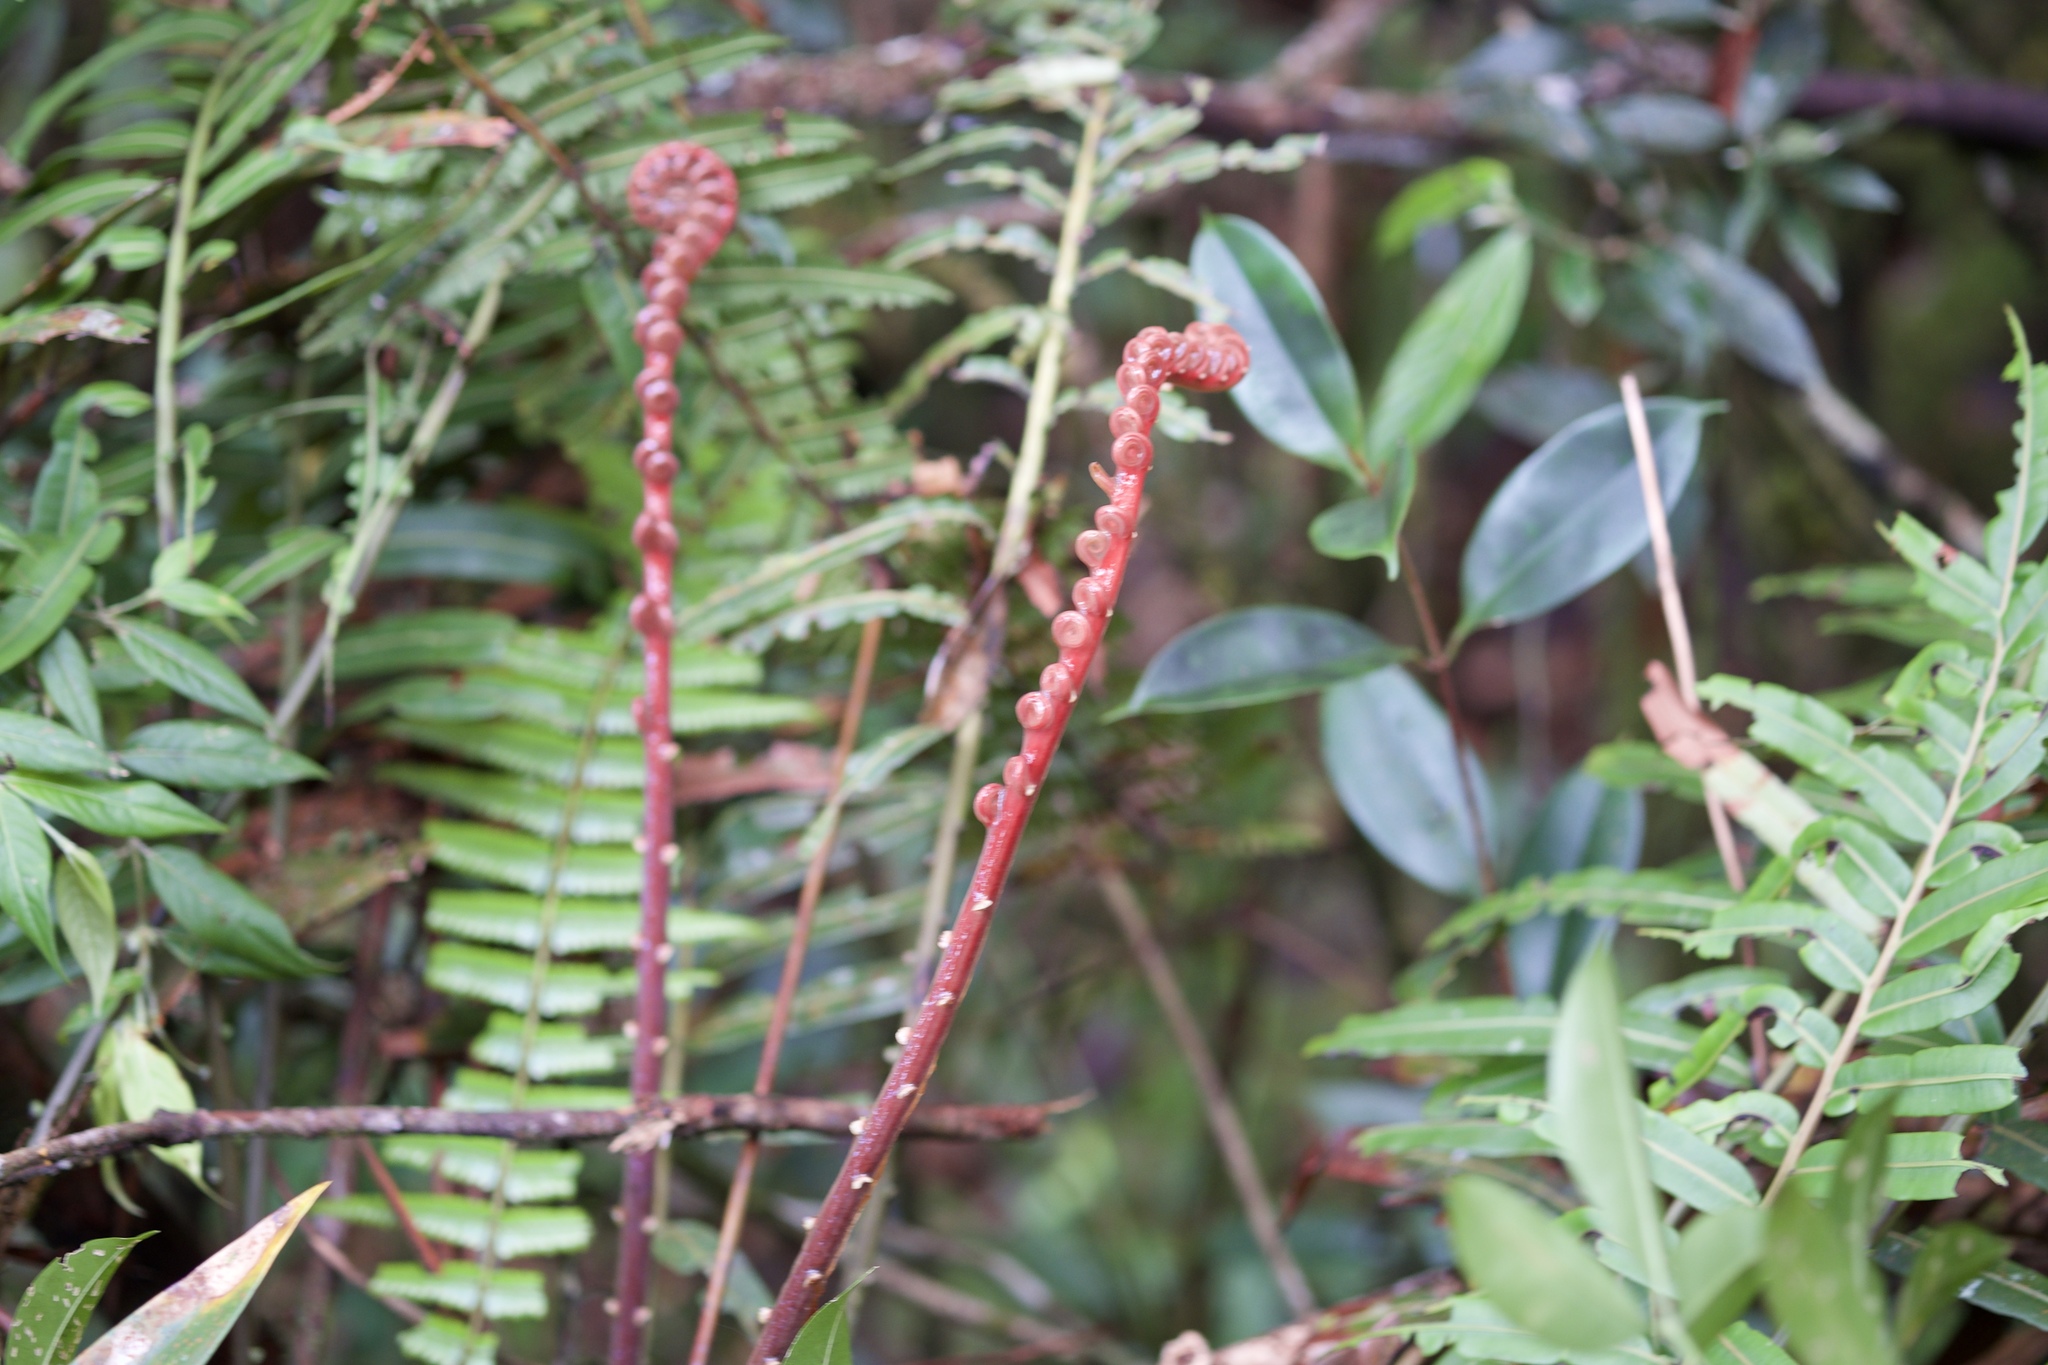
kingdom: Plantae
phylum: Tracheophyta
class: Polypodiopsida
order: Polypodiales
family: Blechnaceae
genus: Blechnopsis
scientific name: Blechnopsis orientalis
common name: Oriental blechnum
